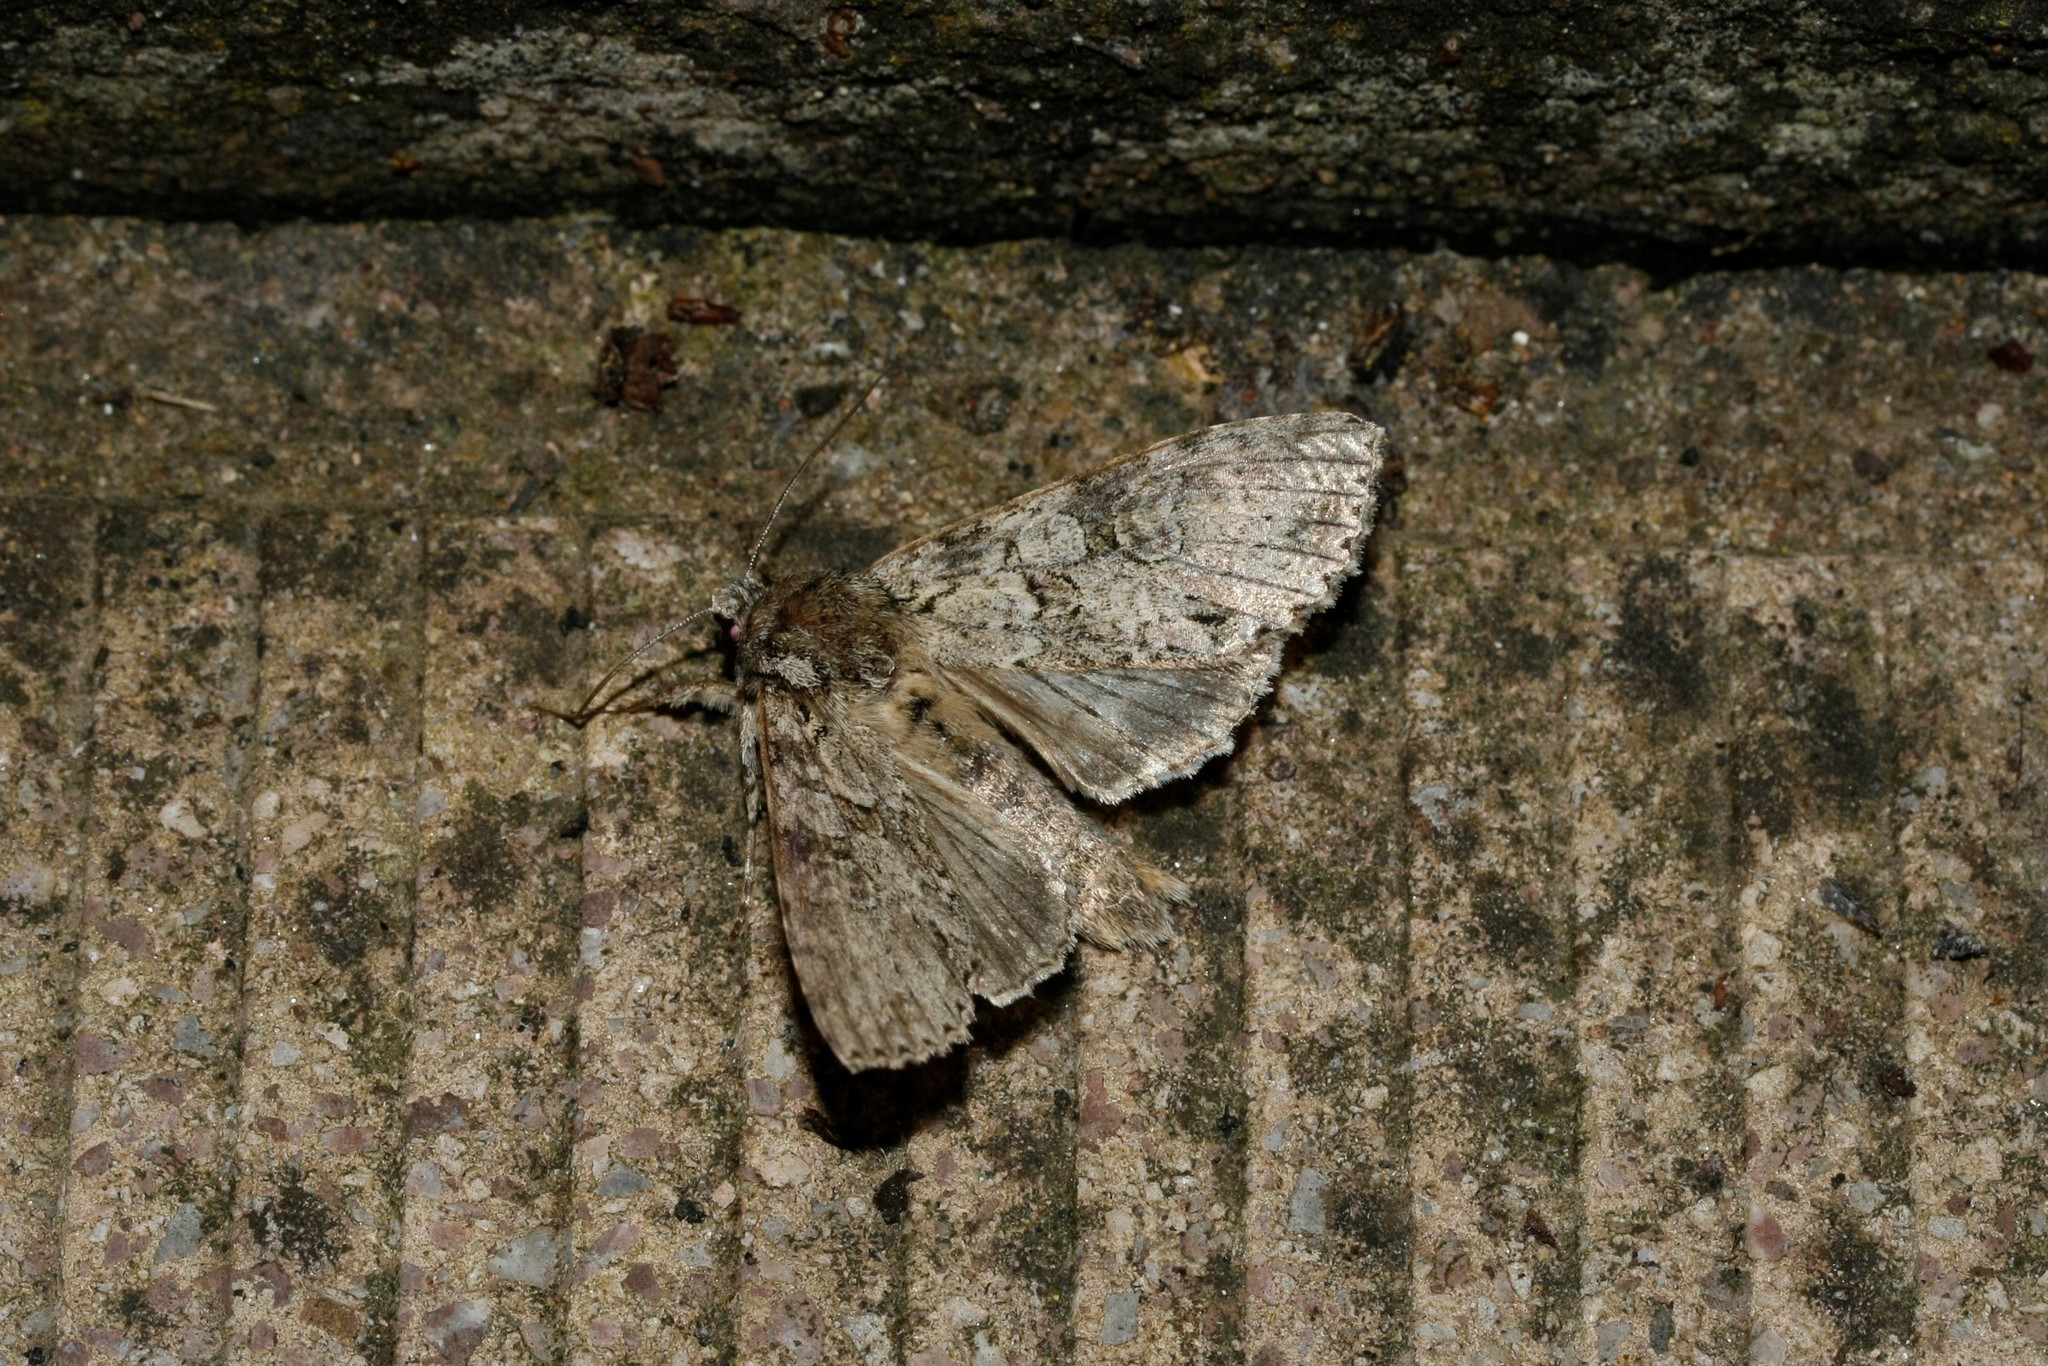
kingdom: Animalia
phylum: Arthropoda
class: Insecta
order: Lepidoptera
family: Noctuidae
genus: Polia
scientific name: Polia nebulosa
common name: Grey arches
